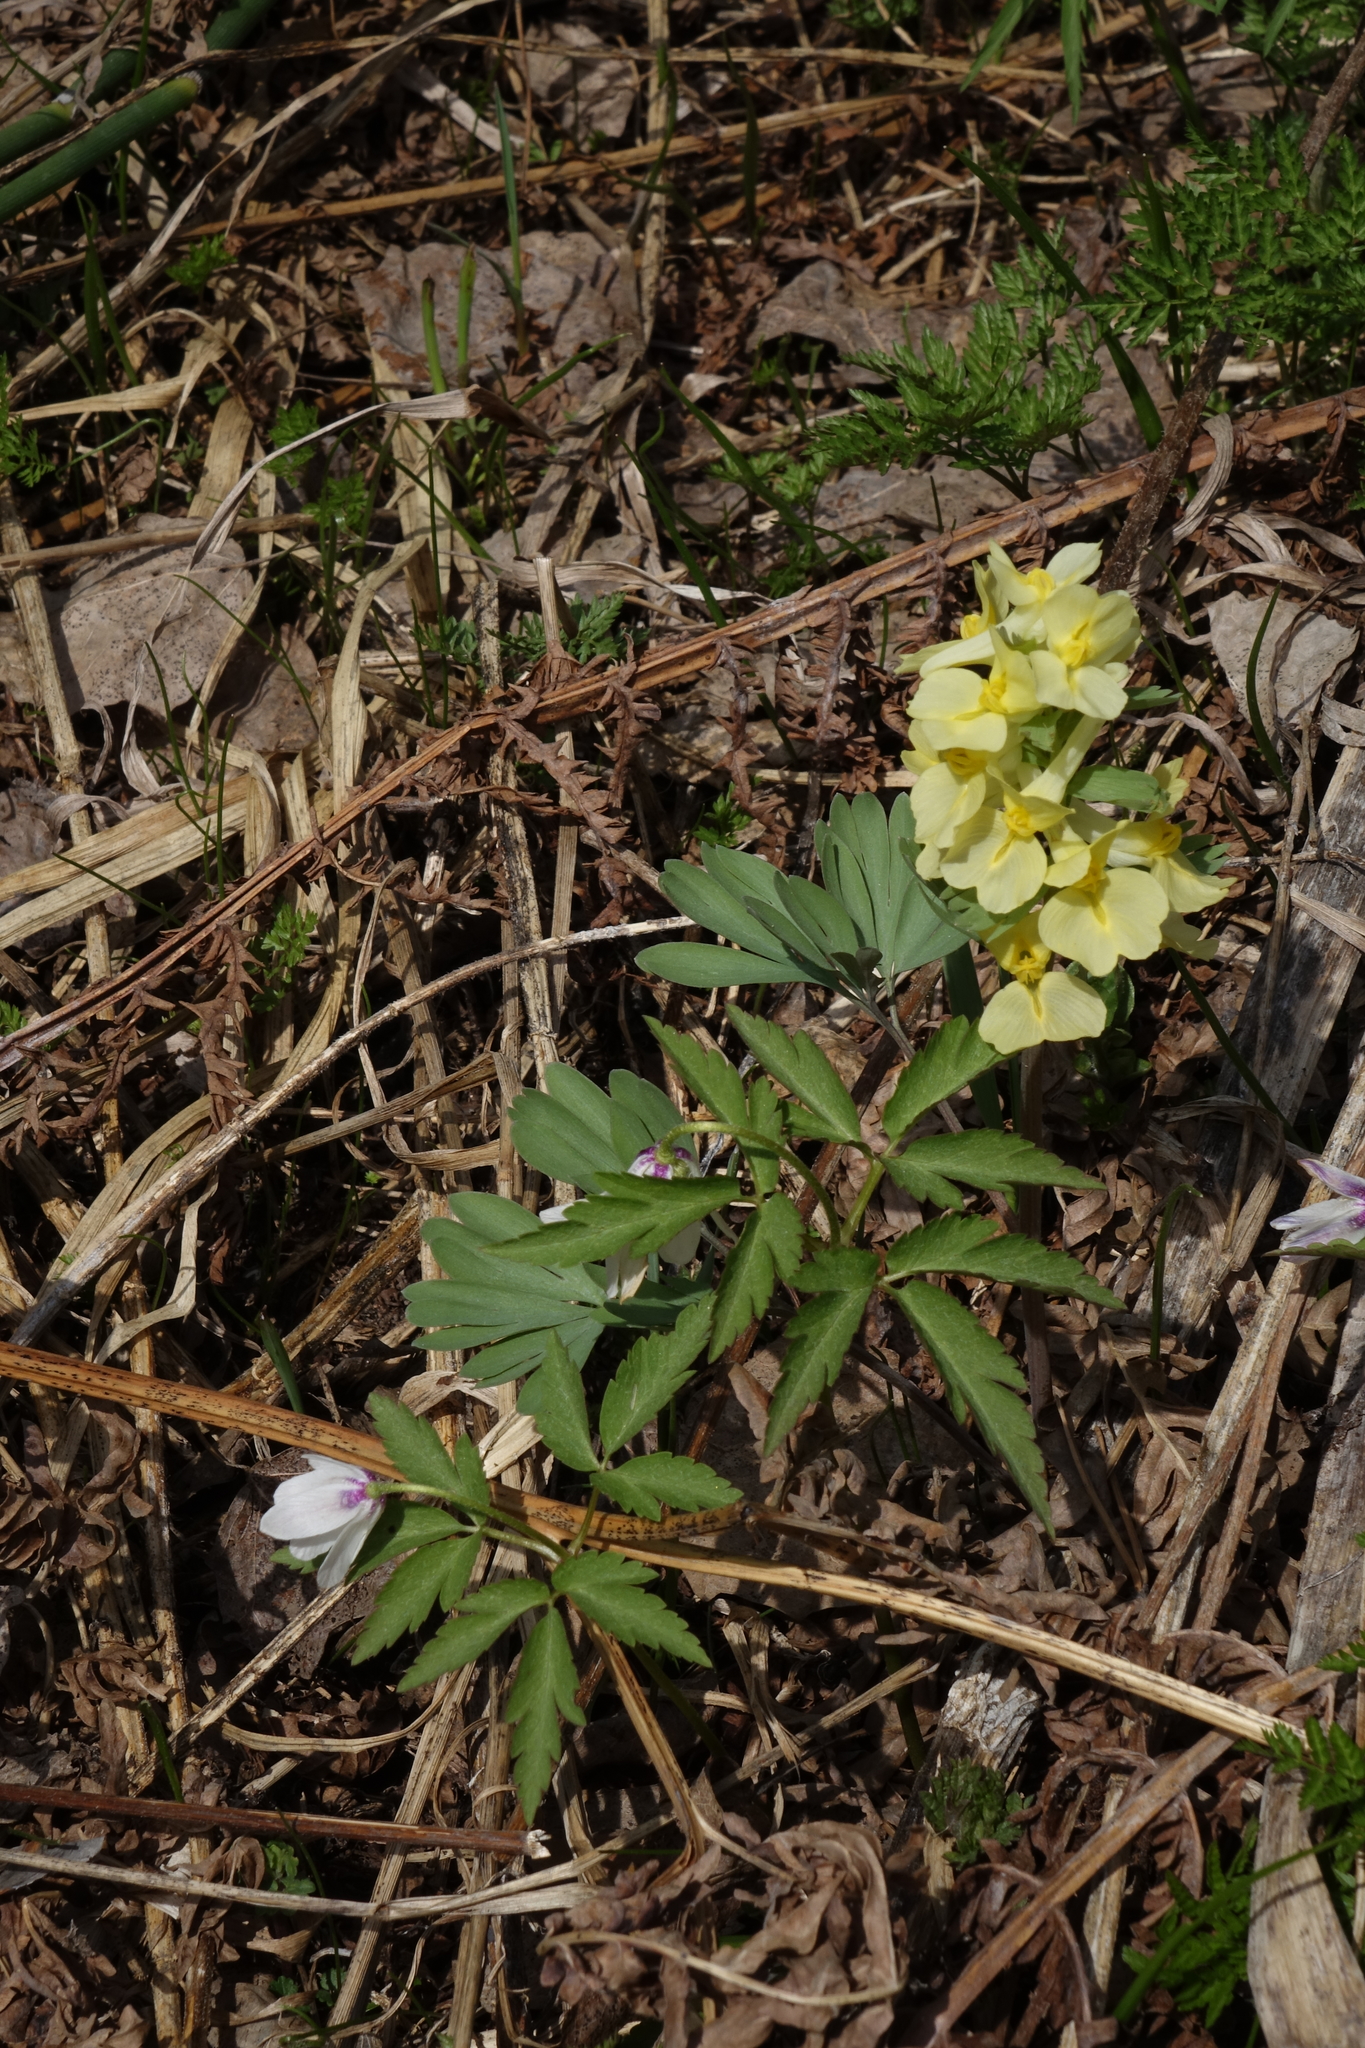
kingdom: Plantae
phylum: Tracheophyta
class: Magnoliopsida
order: Ranunculales
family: Papaveraceae
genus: Corydalis
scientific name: Corydalis bracteata
